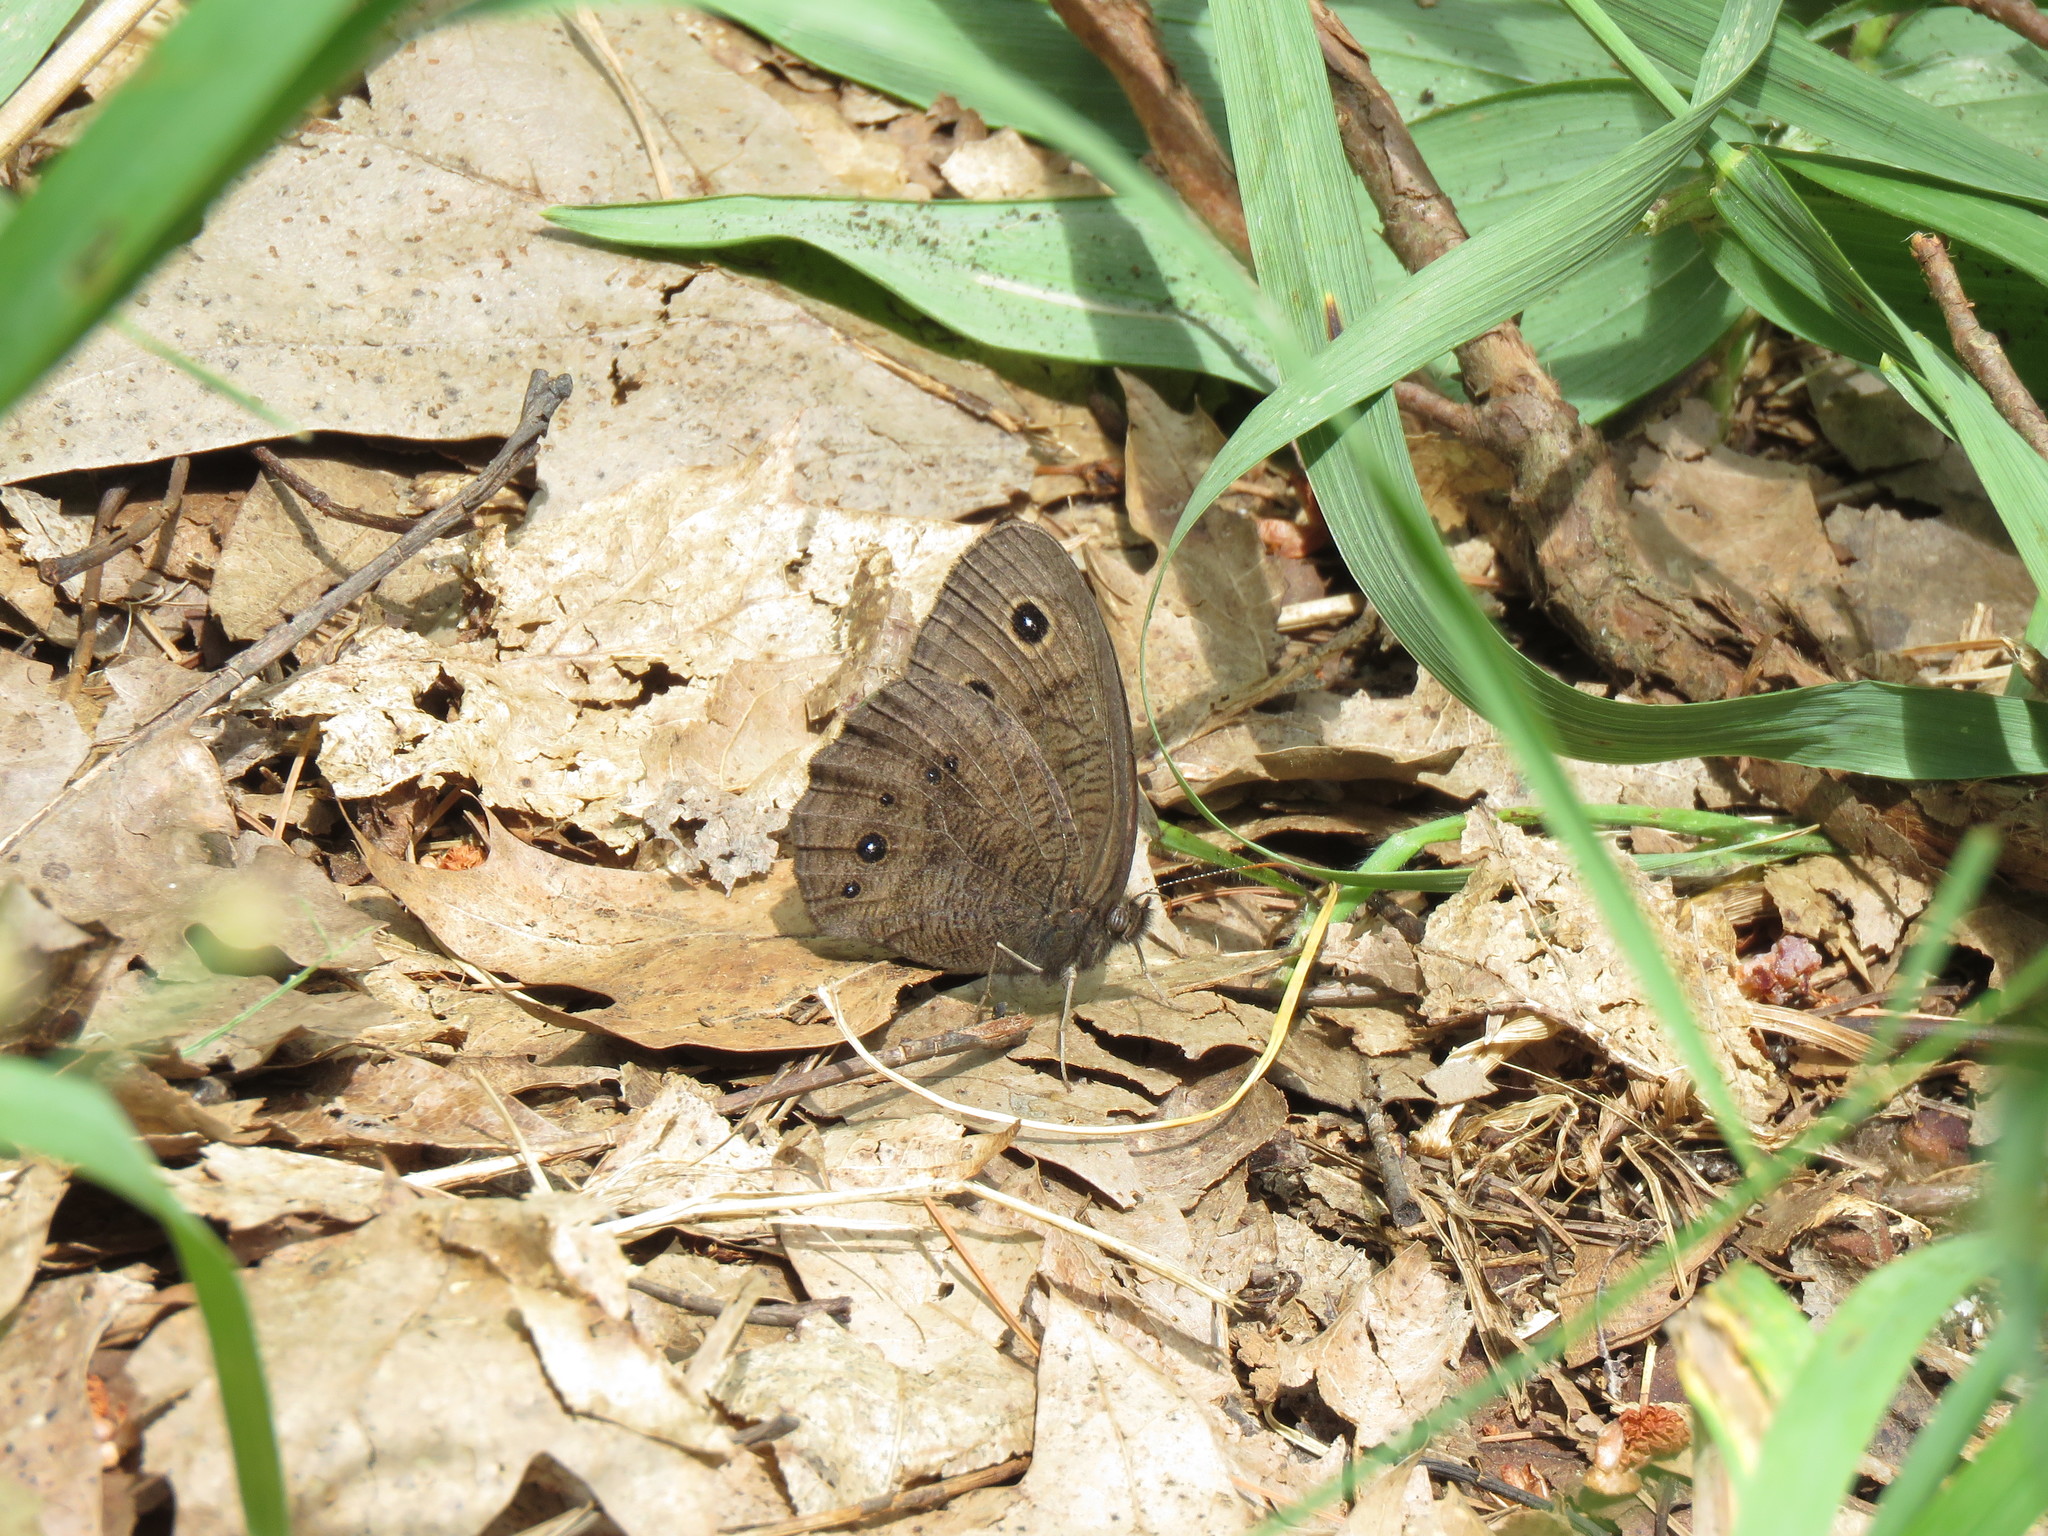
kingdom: Animalia
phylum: Arthropoda
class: Insecta
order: Lepidoptera
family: Nymphalidae
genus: Cercyonis
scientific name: Cercyonis pegala
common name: Common wood-nymph
